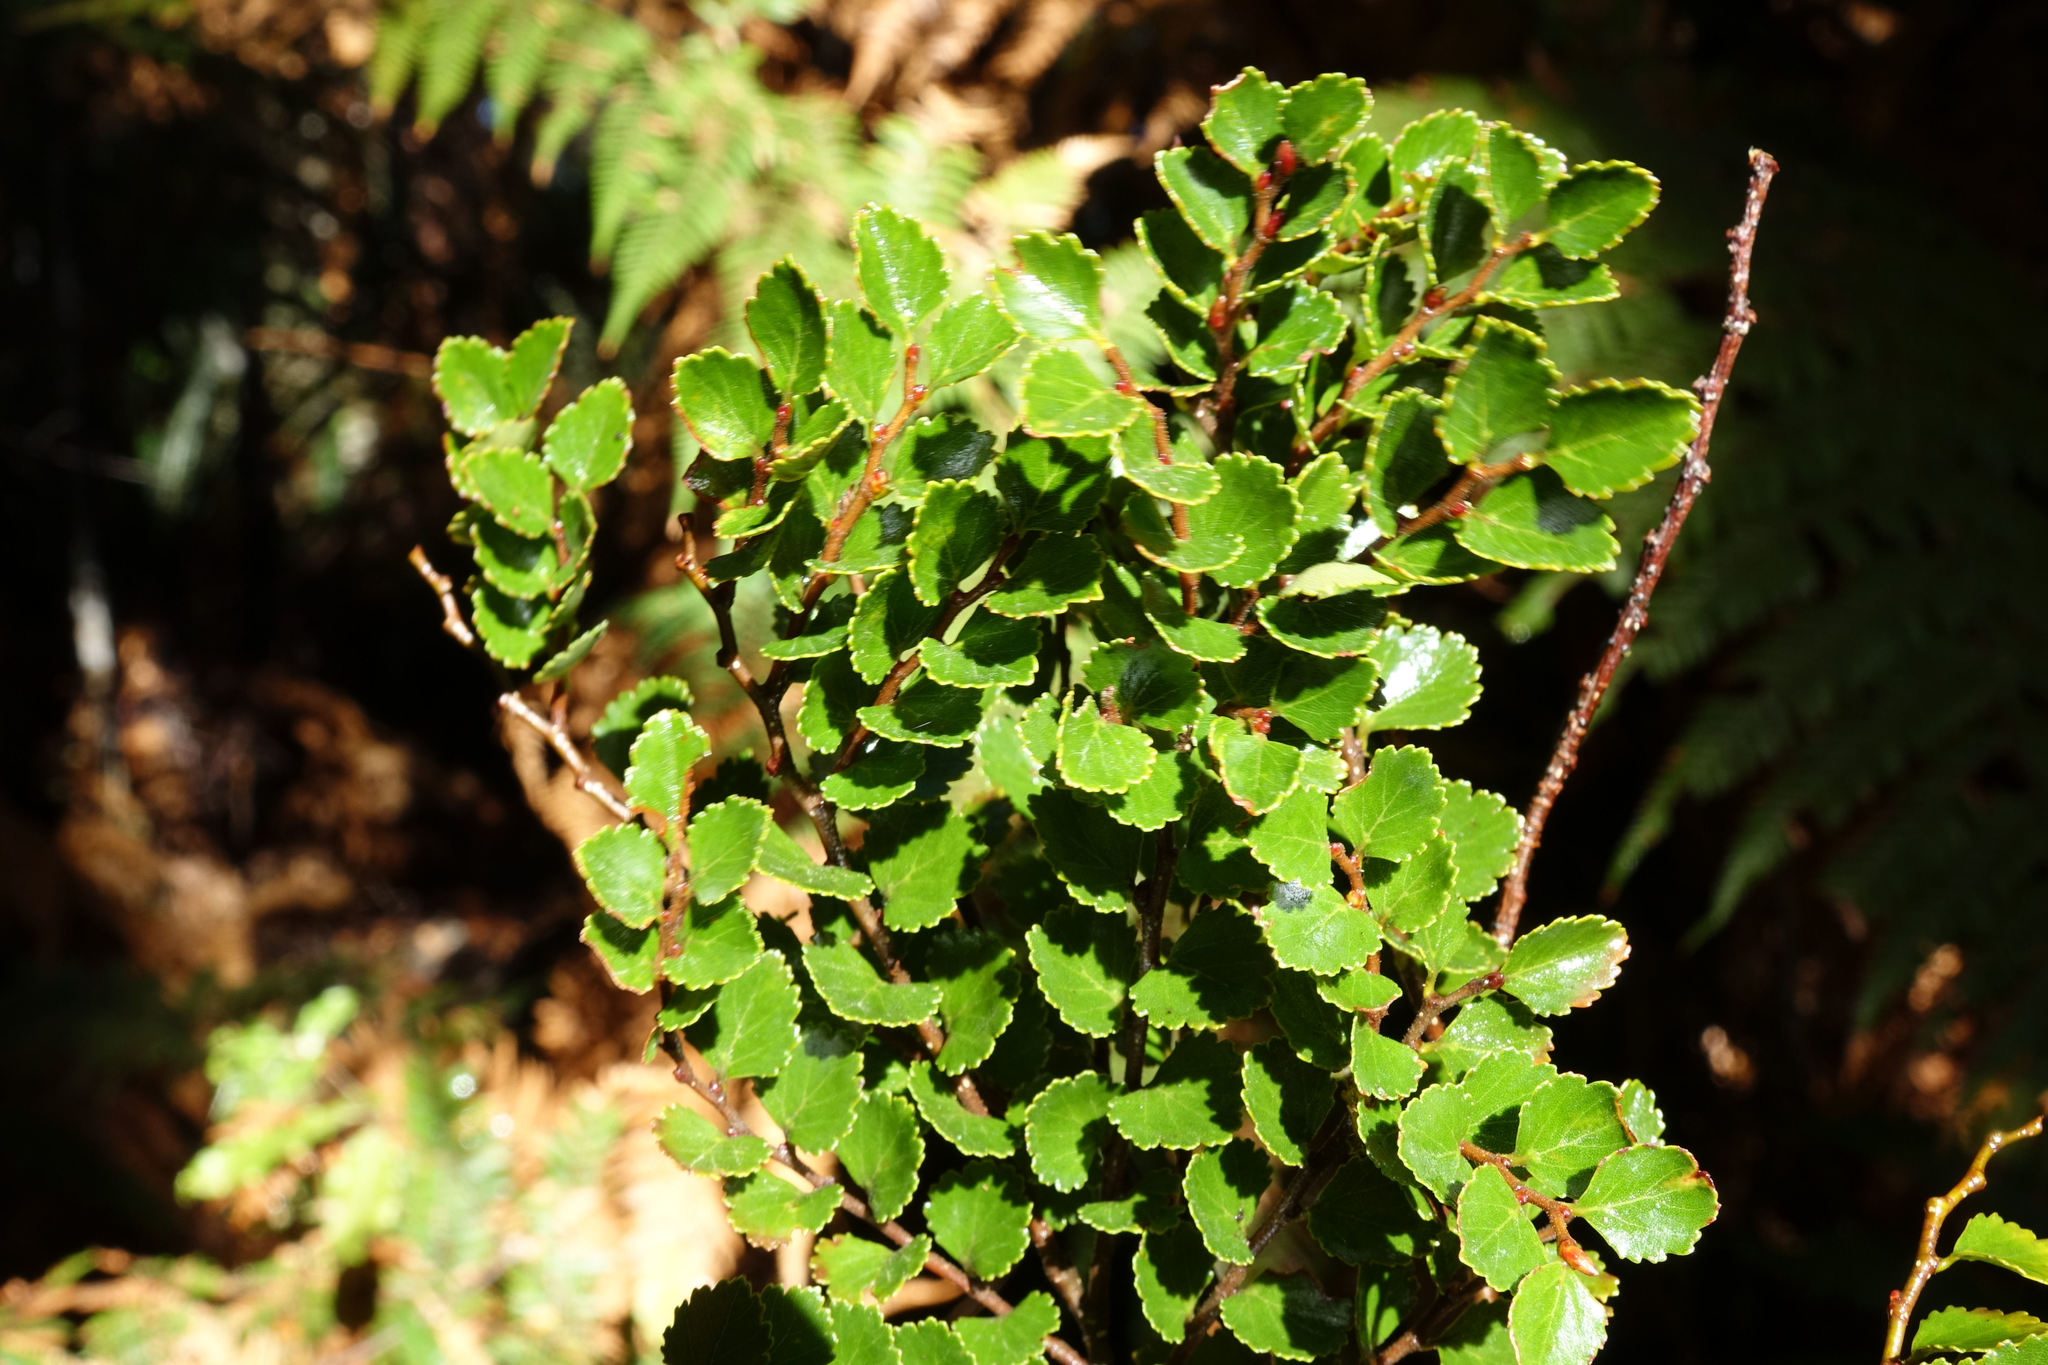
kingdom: Plantae
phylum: Tracheophyta
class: Magnoliopsida
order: Fagales
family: Nothofagaceae
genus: Nothofagus
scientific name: Nothofagus menziesii
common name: Silver beech
